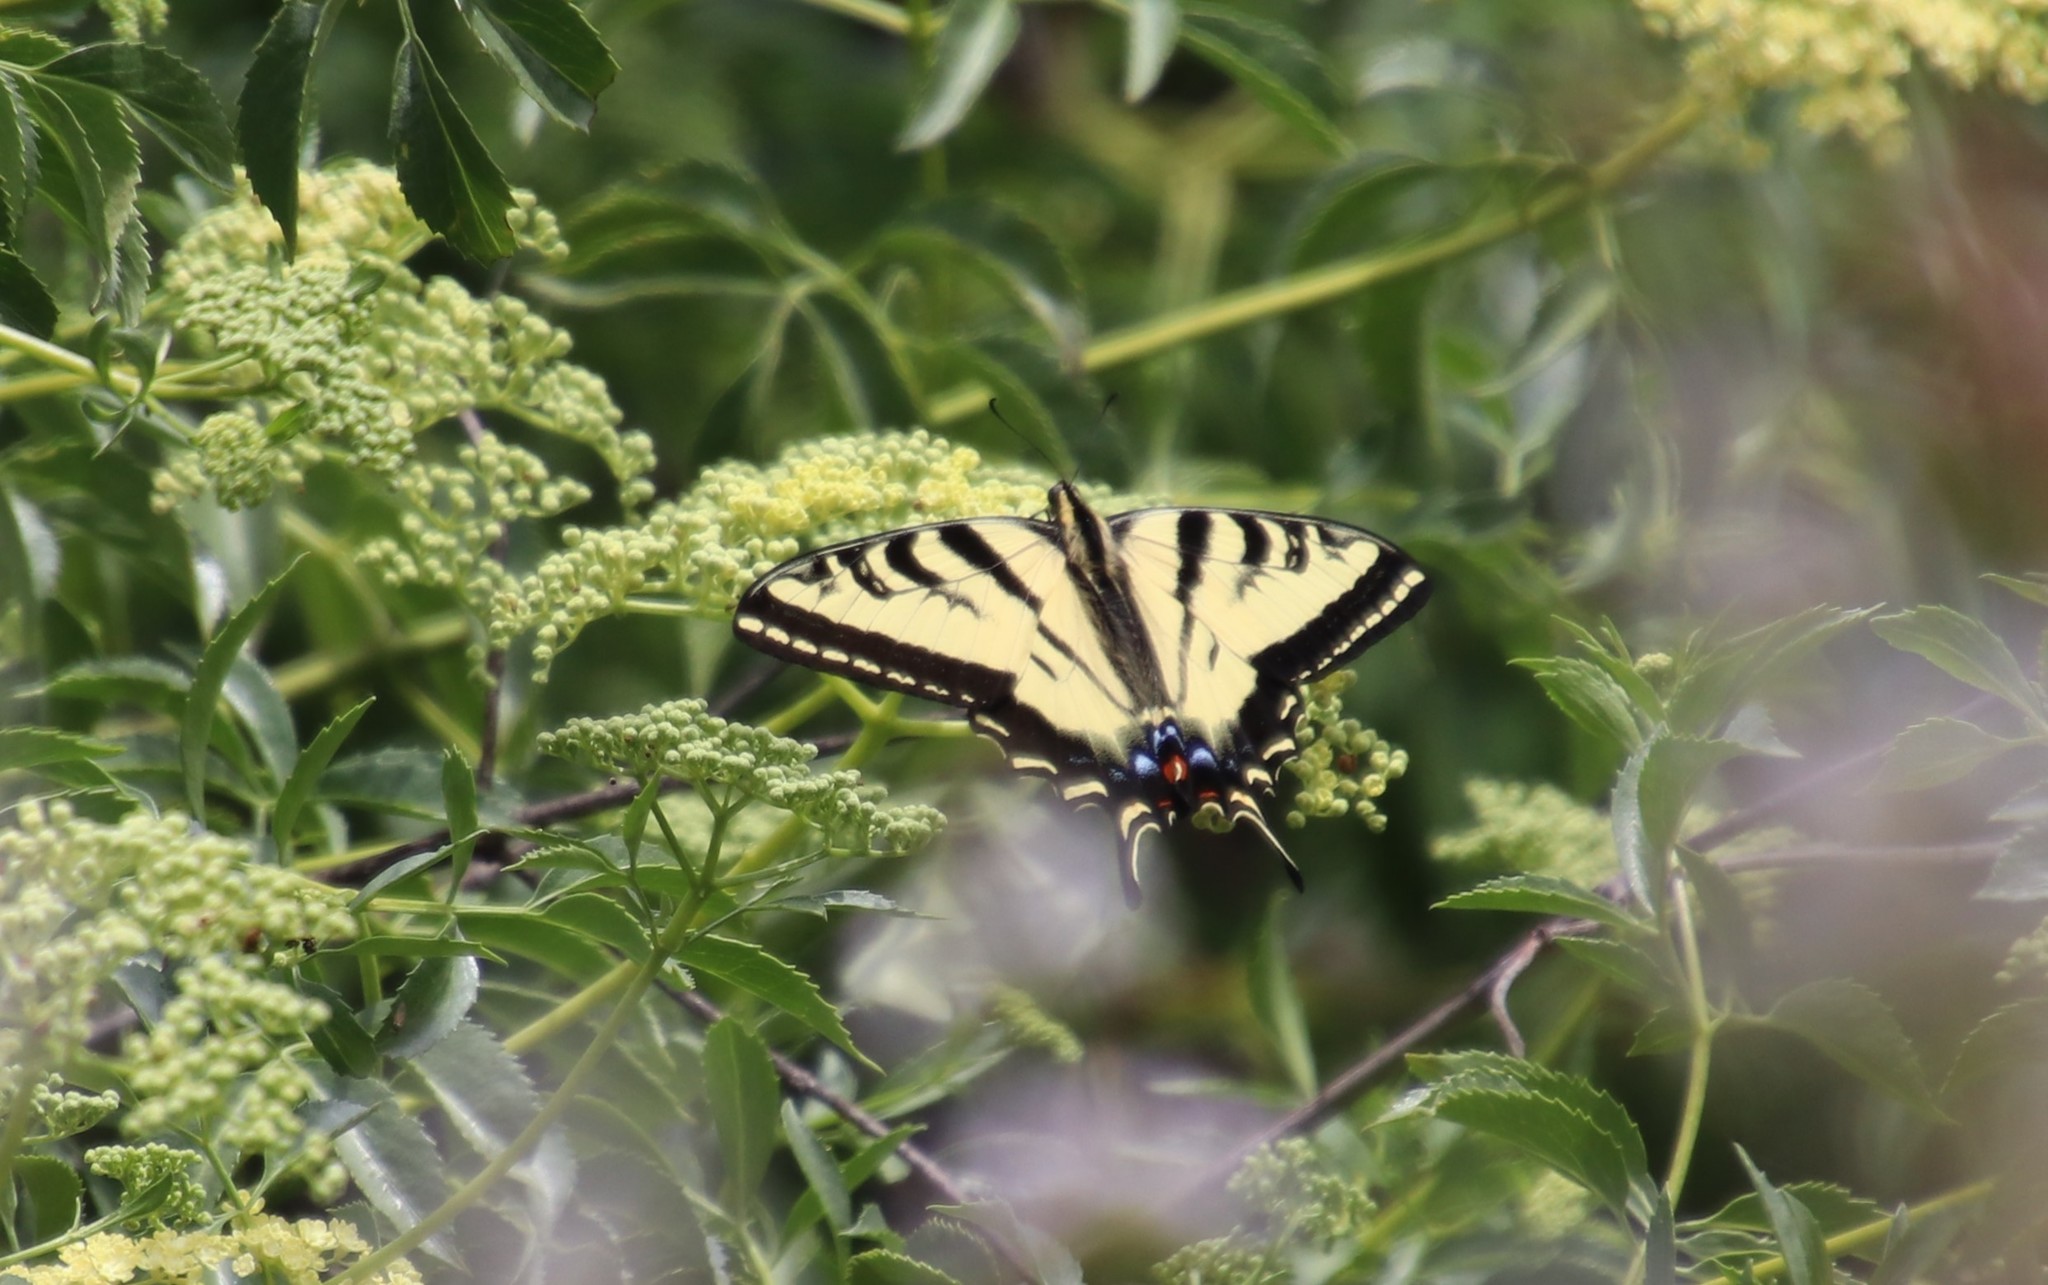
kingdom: Animalia
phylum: Arthropoda
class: Insecta
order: Lepidoptera
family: Papilionidae
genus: Papilio
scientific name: Papilio rutulus
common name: Western tiger swallowtail
